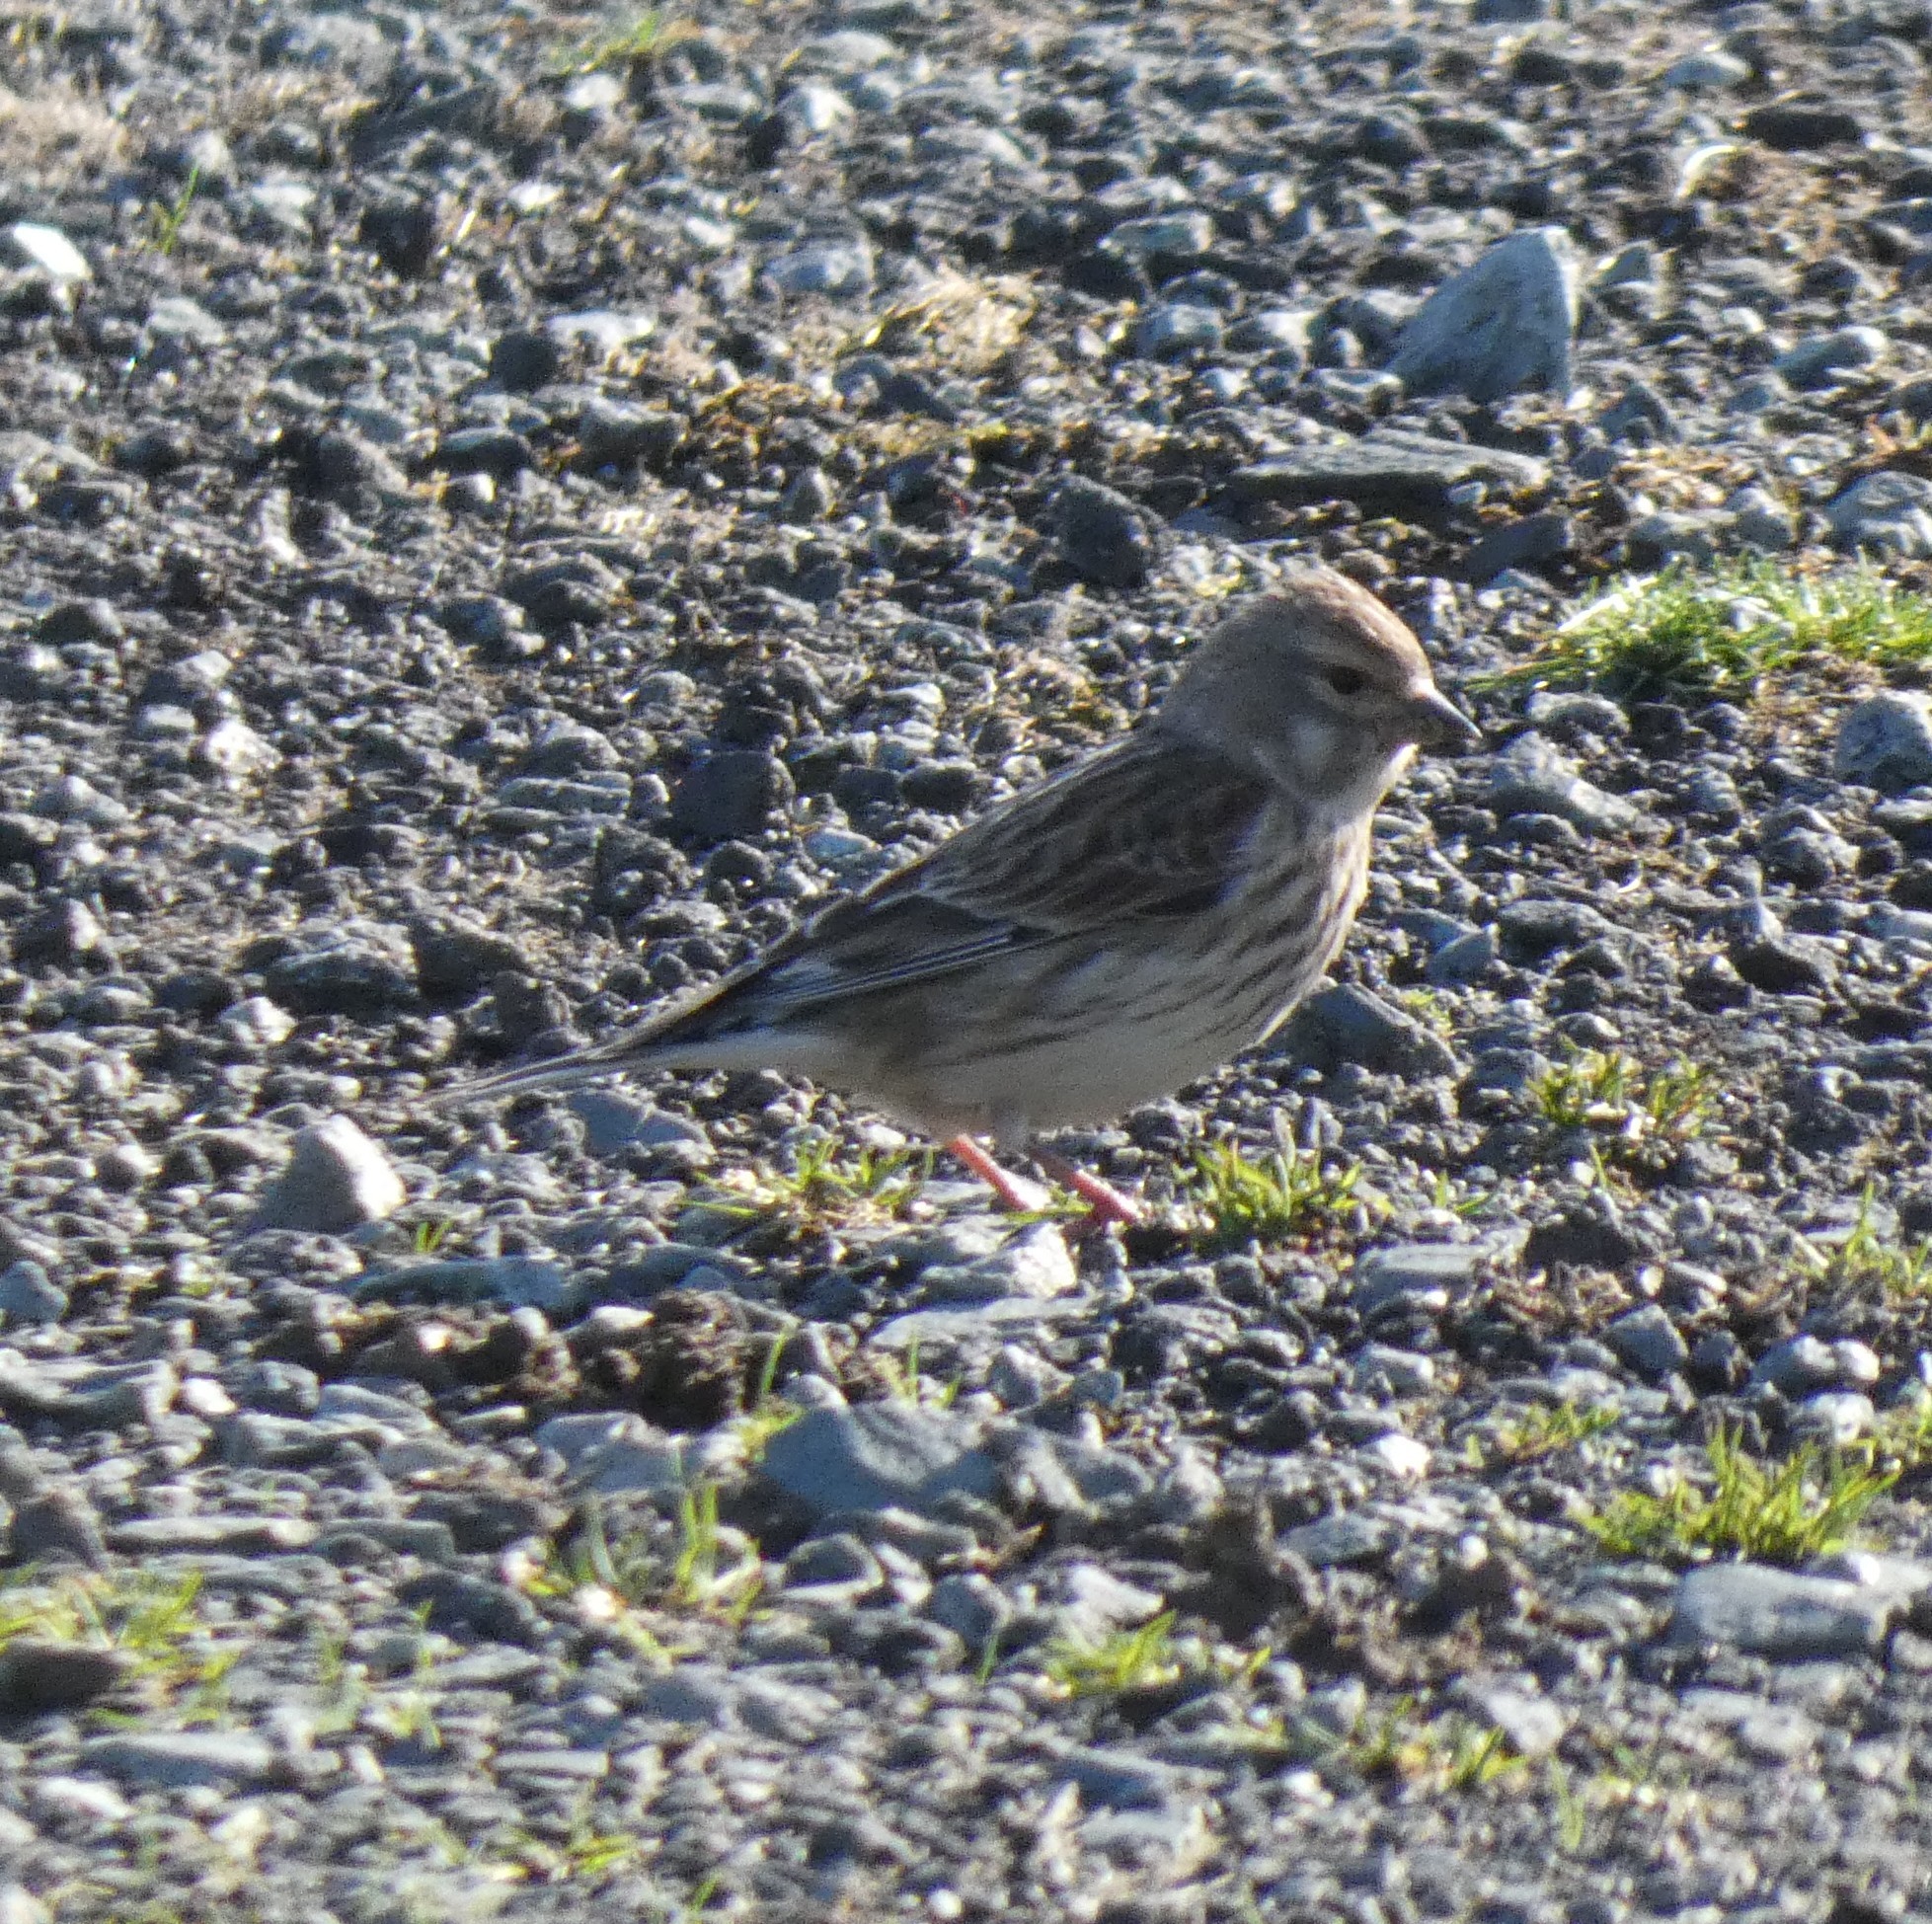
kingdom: Animalia
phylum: Chordata
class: Aves
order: Passeriformes
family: Fringillidae
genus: Linaria
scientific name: Linaria cannabina
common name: Common linnet
